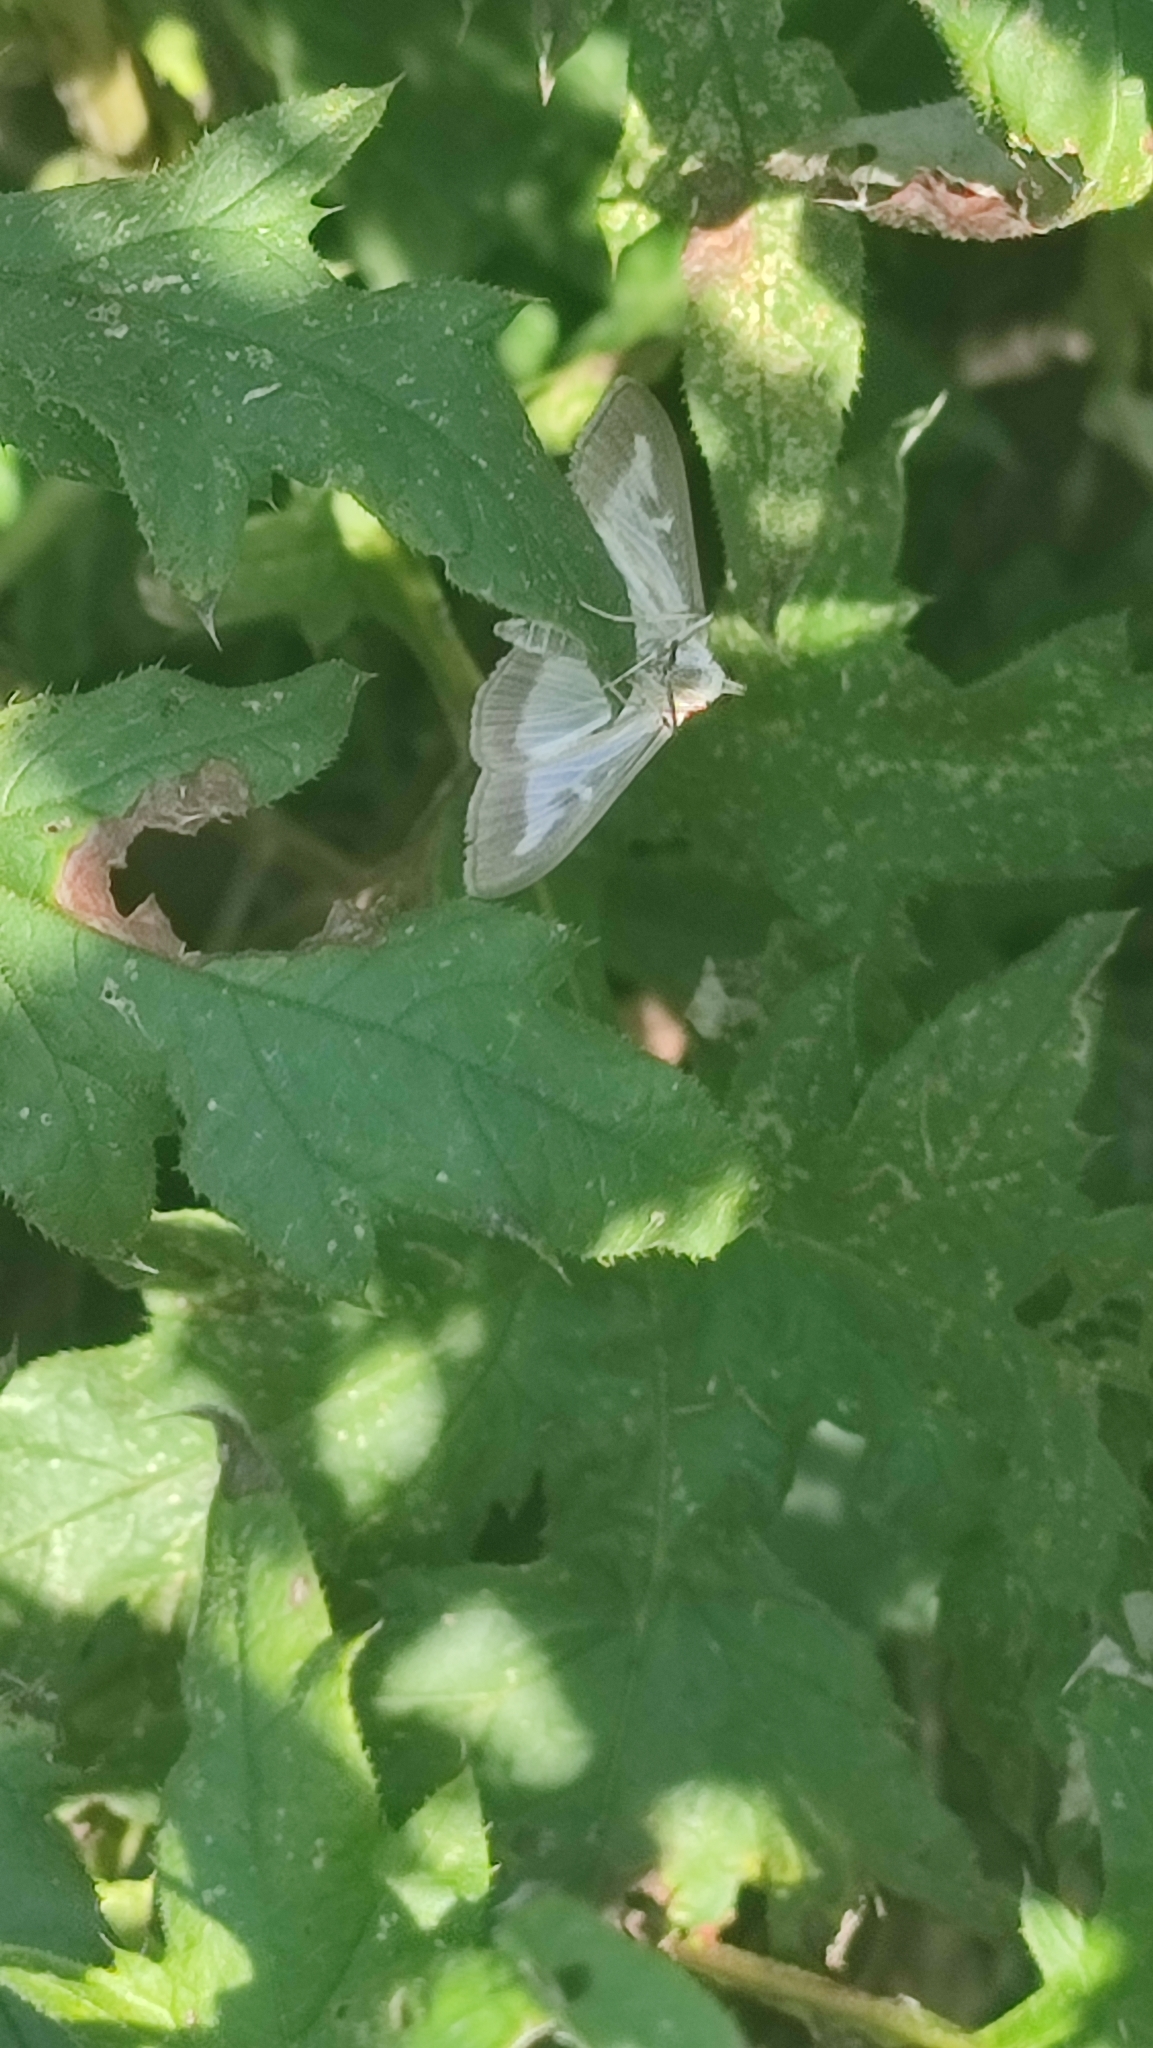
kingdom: Animalia
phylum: Arthropoda
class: Insecta
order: Lepidoptera
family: Crambidae
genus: Cydalima
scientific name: Cydalima perspectalis
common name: Box tree moth
